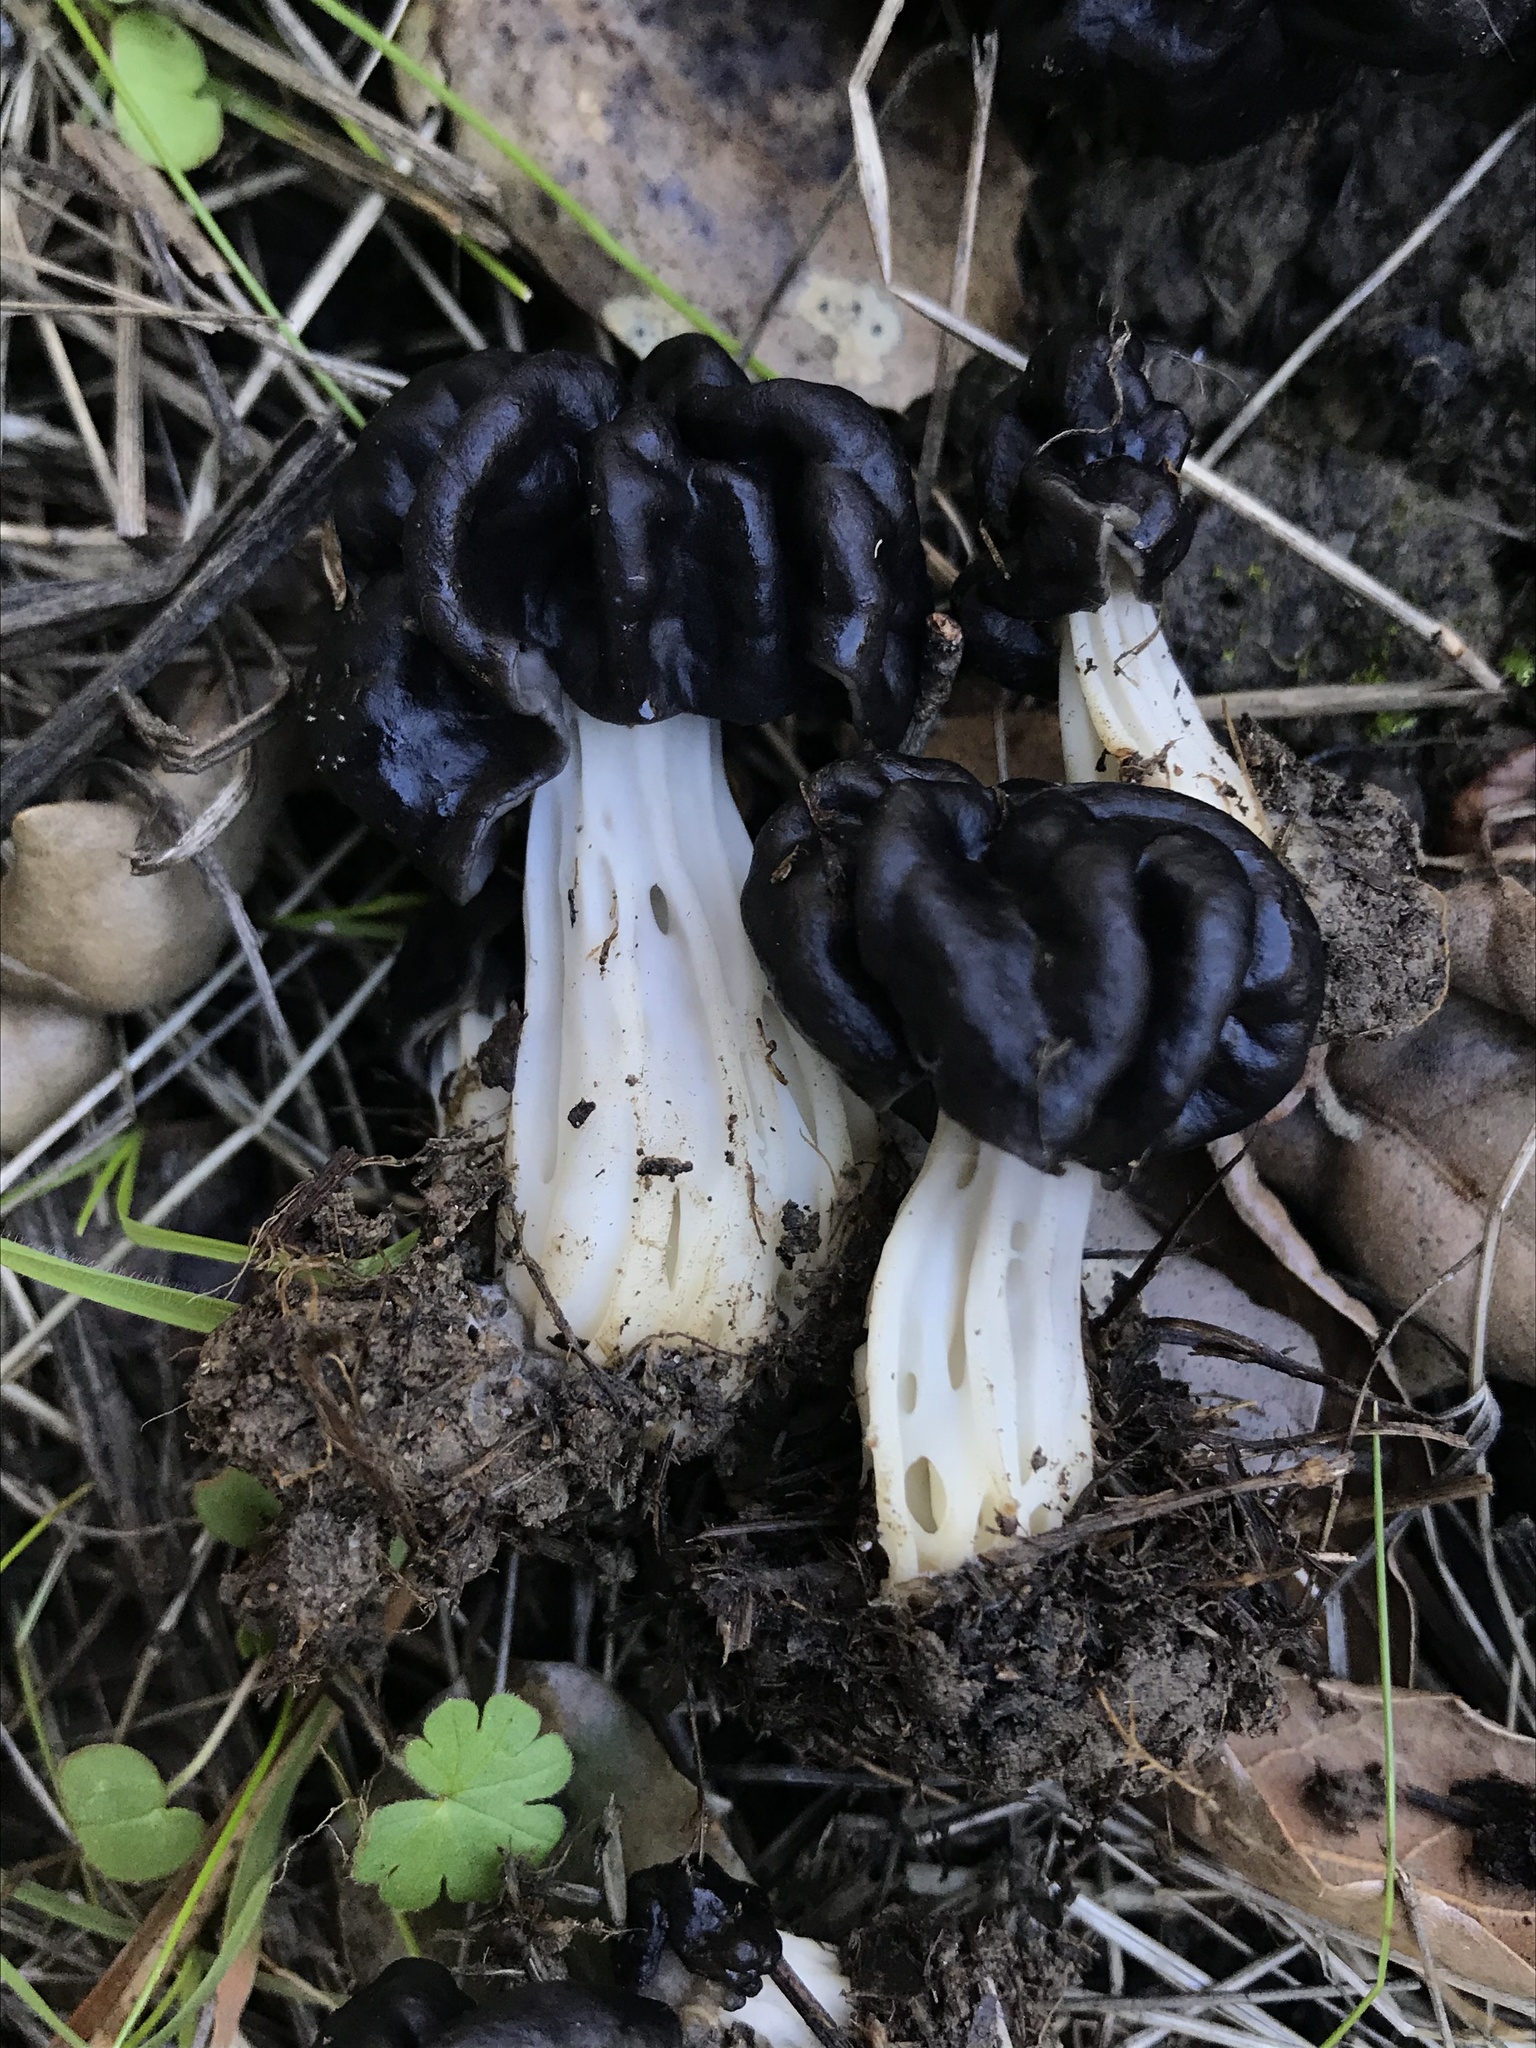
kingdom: Fungi
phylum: Ascomycota
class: Pezizomycetes
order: Pezizales
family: Helvellaceae
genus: Helvella
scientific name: Helvella dryophila
